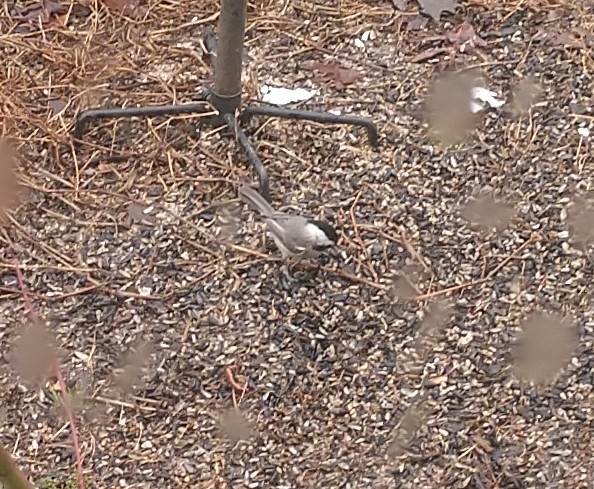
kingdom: Animalia
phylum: Chordata
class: Aves
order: Passeriformes
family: Paridae
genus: Poecile
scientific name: Poecile carolinensis
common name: Carolina chickadee
